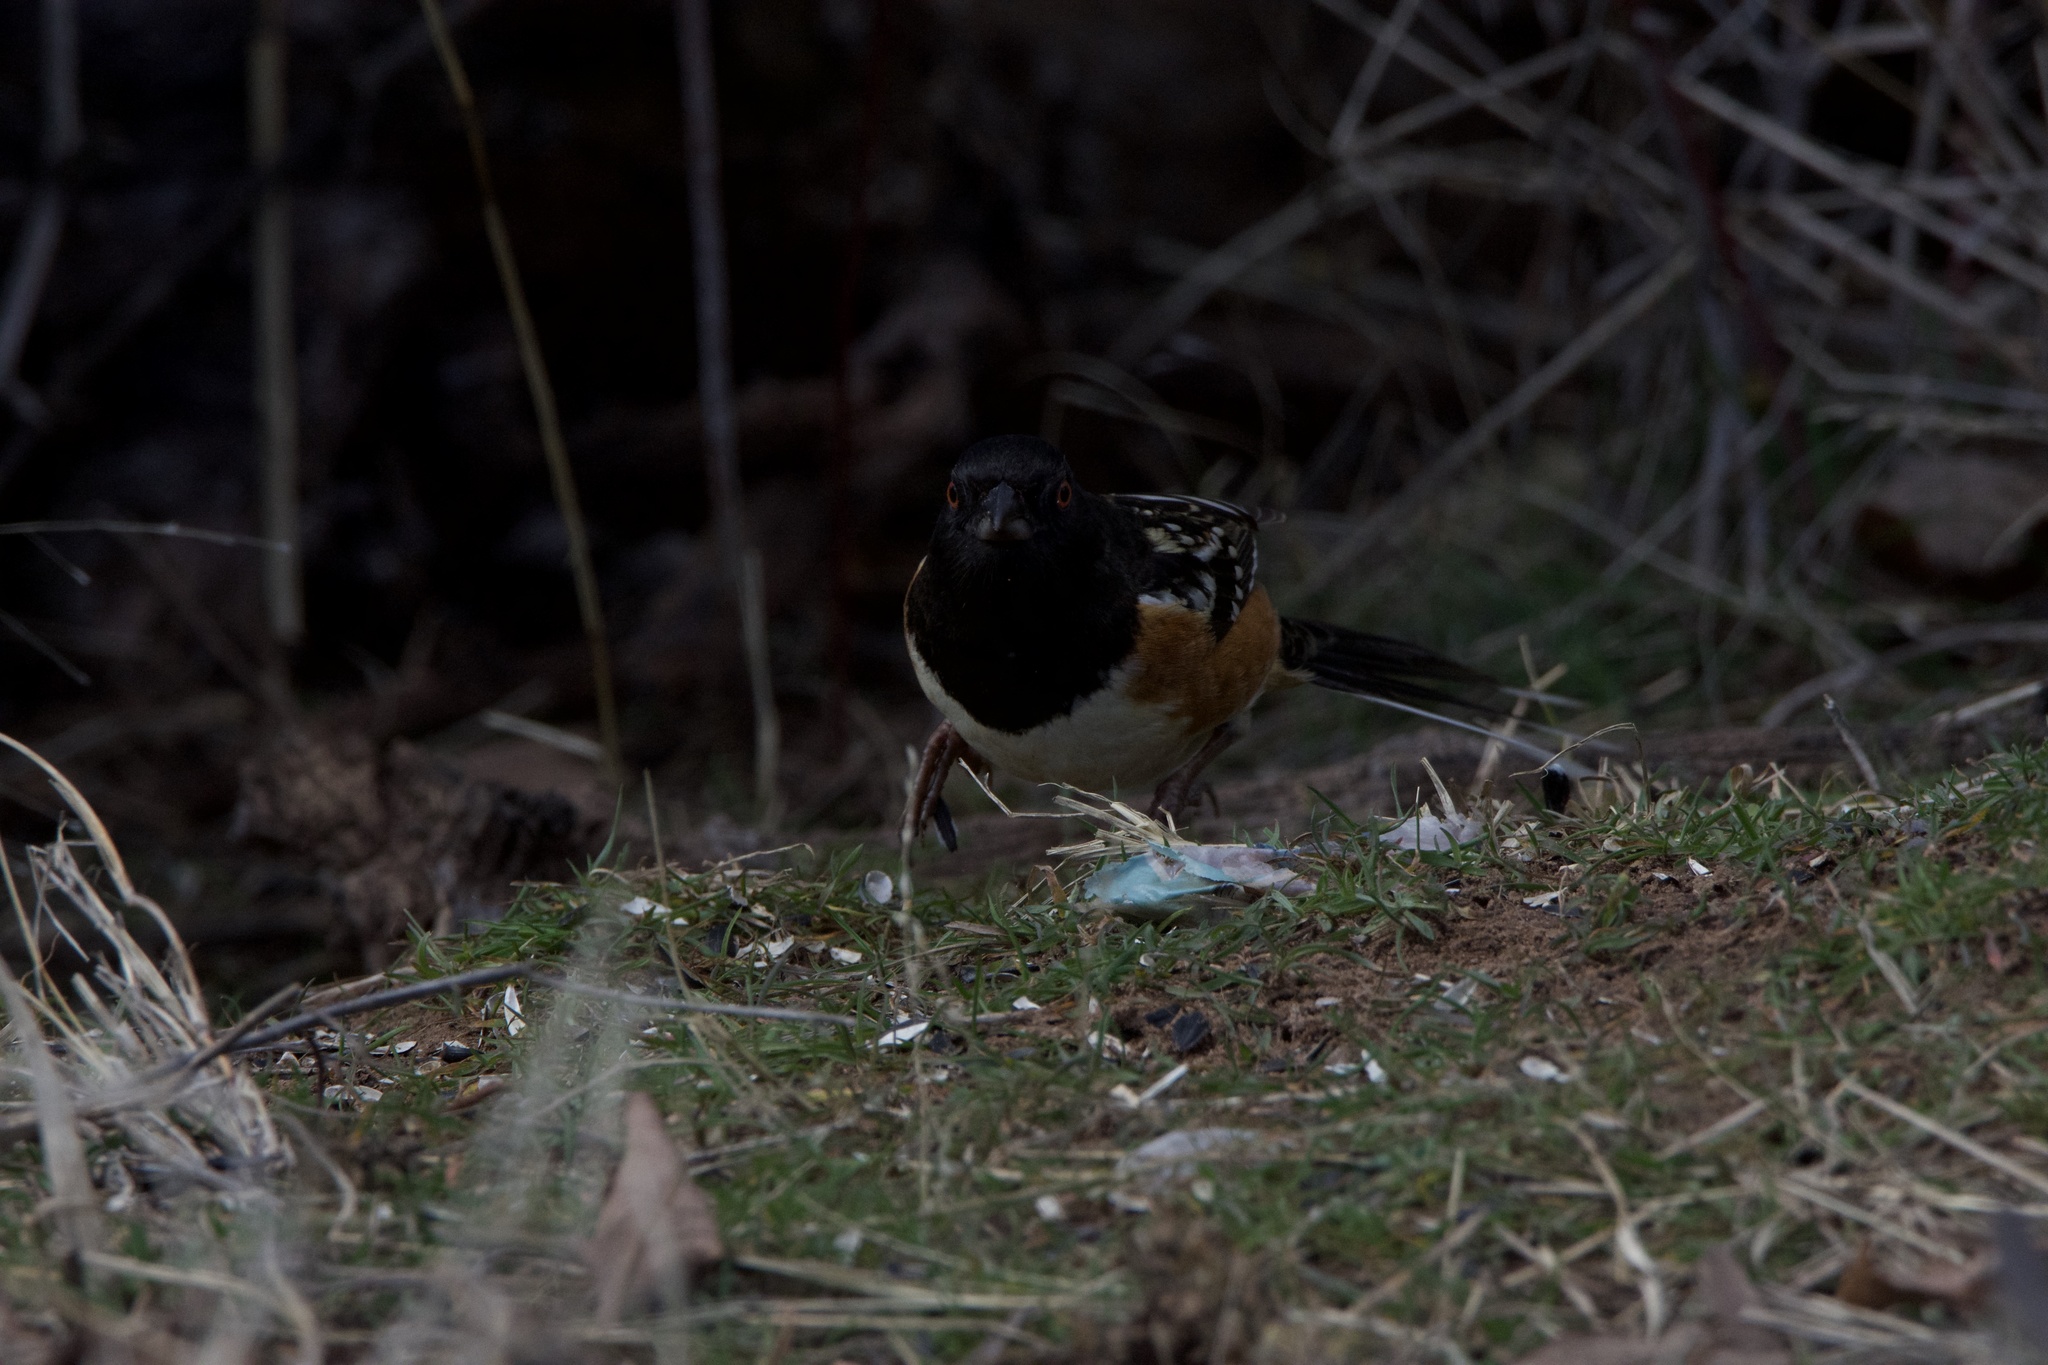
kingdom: Animalia
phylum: Chordata
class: Aves
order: Passeriformes
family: Passerellidae
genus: Pipilo
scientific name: Pipilo maculatus
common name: Spotted towhee
